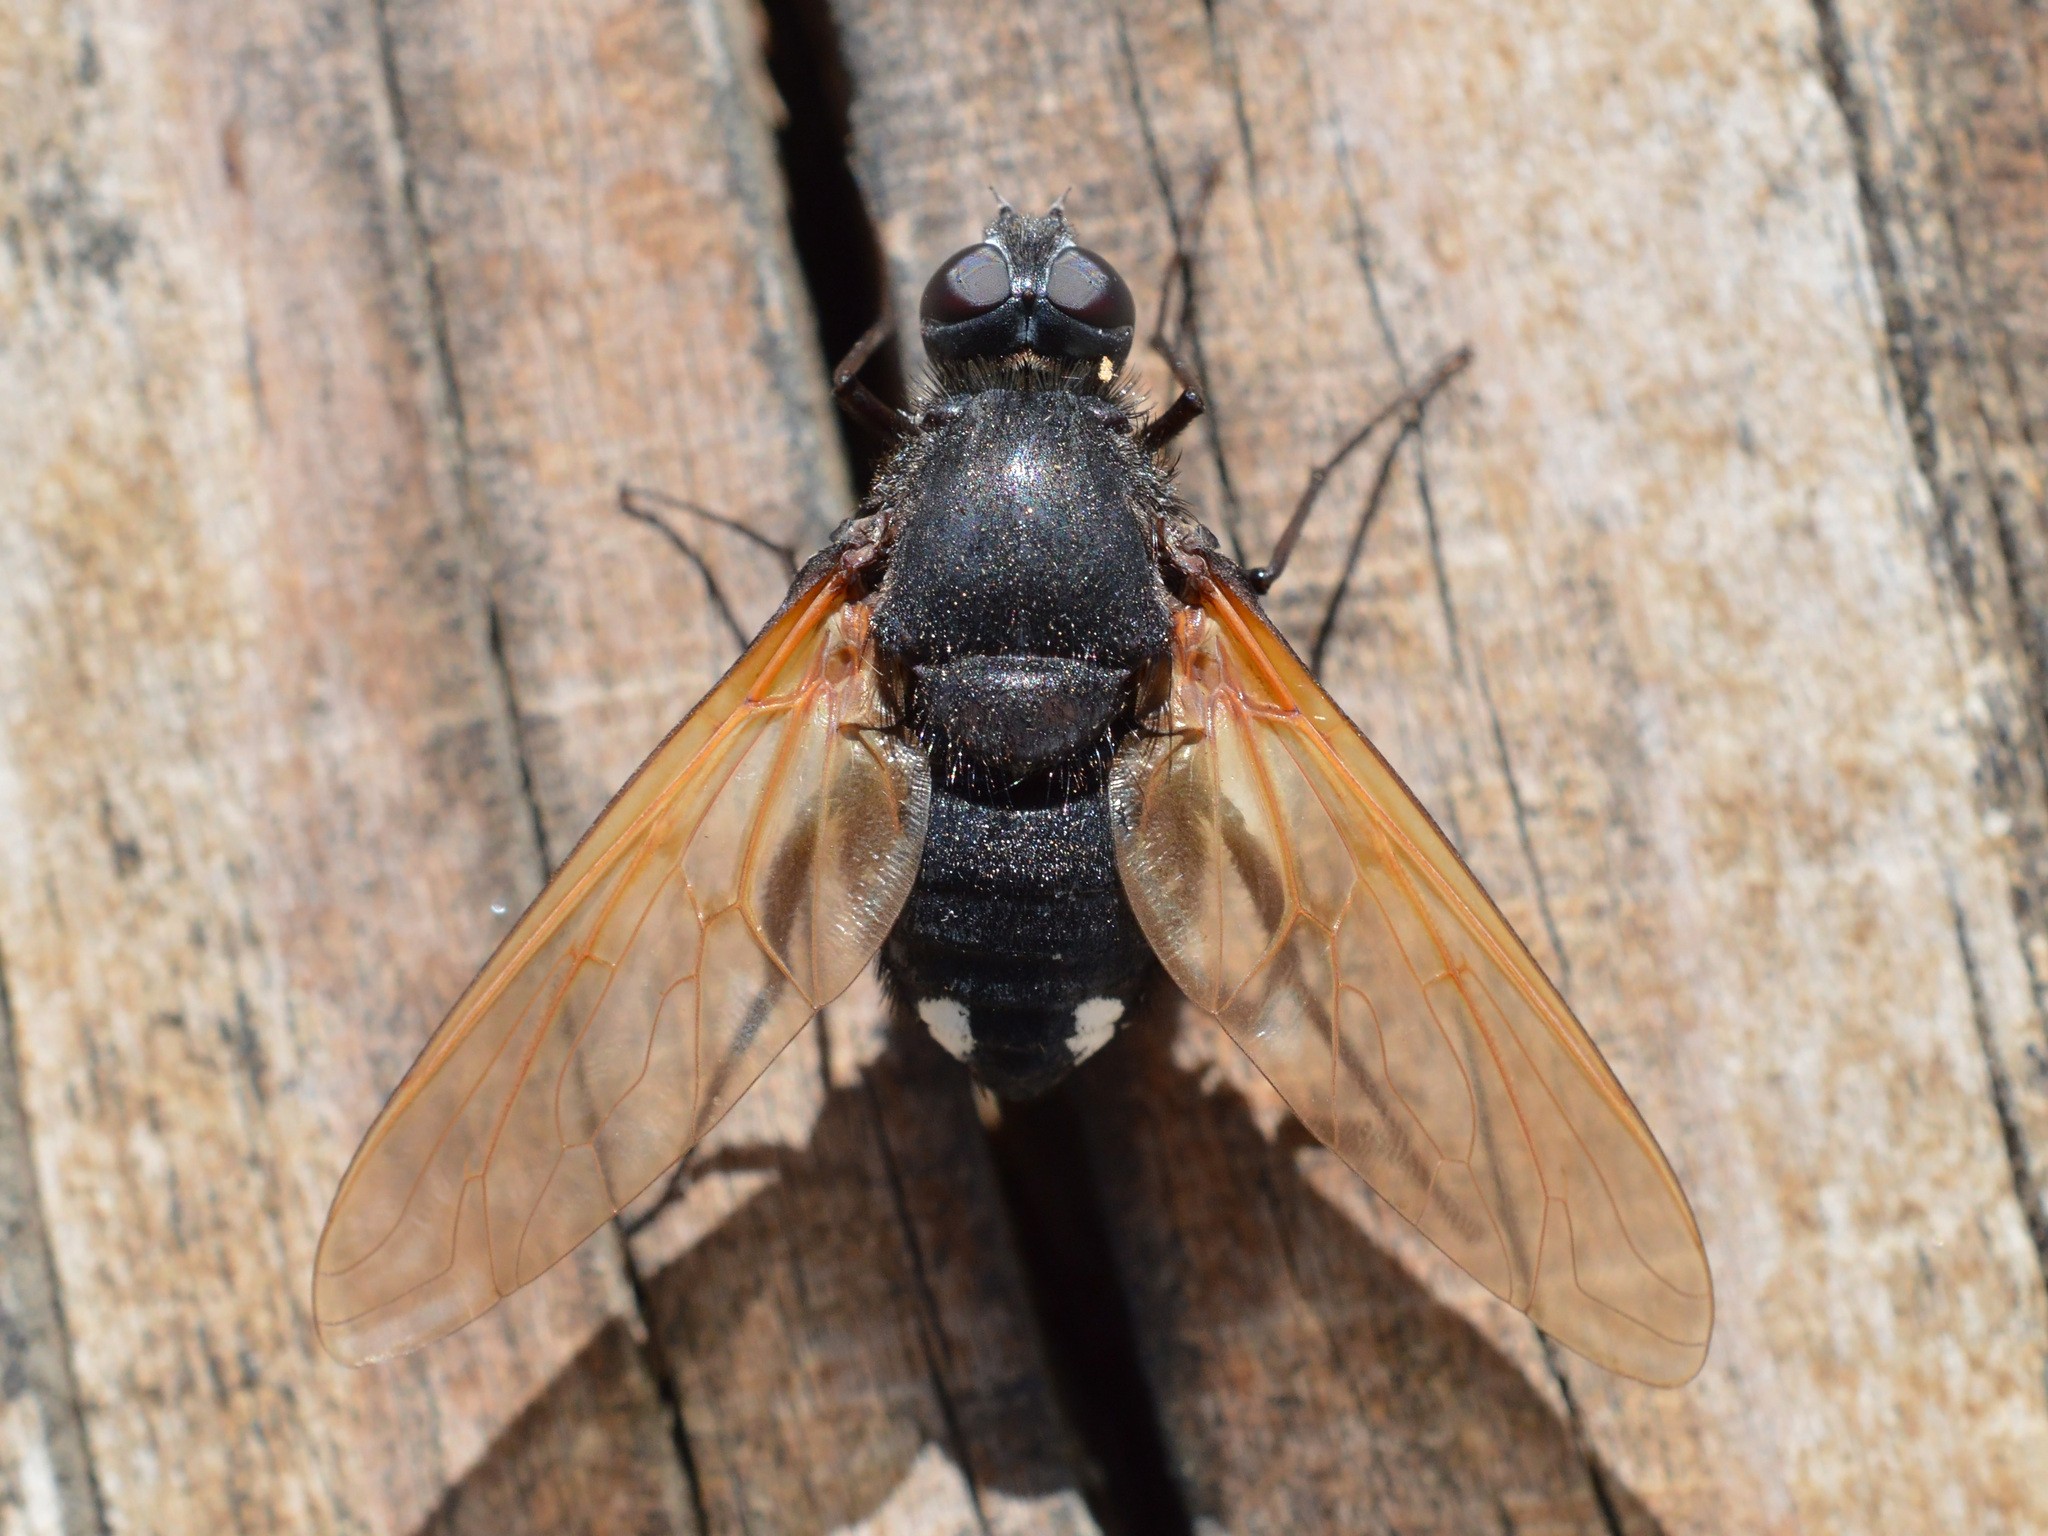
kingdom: Animalia
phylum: Arthropoda
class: Insecta
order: Diptera
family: Bombyliidae
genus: Satyramoeba
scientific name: Satyramoeba hetrusca
